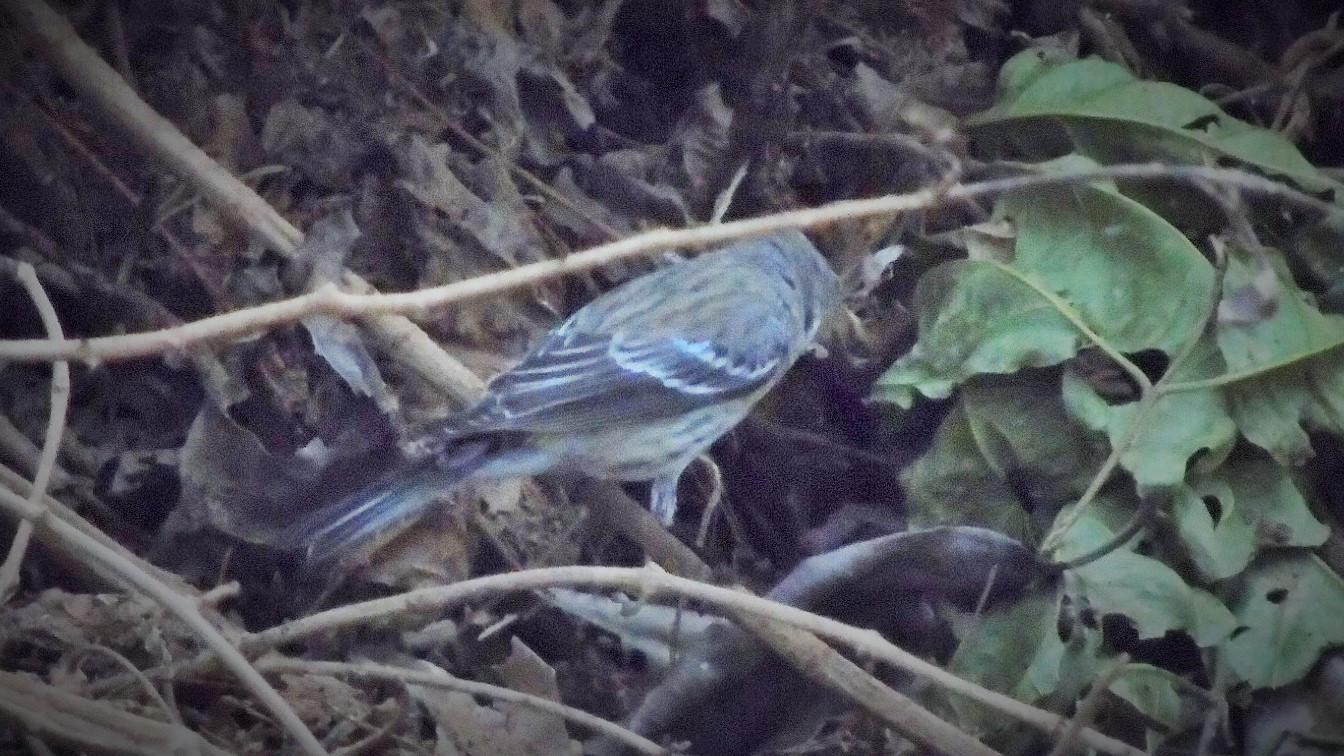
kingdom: Animalia
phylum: Chordata
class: Aves
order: Passeriformes
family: Parulidae
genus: Setophaga
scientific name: Setophaga coronata
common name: Myrtle warbler
